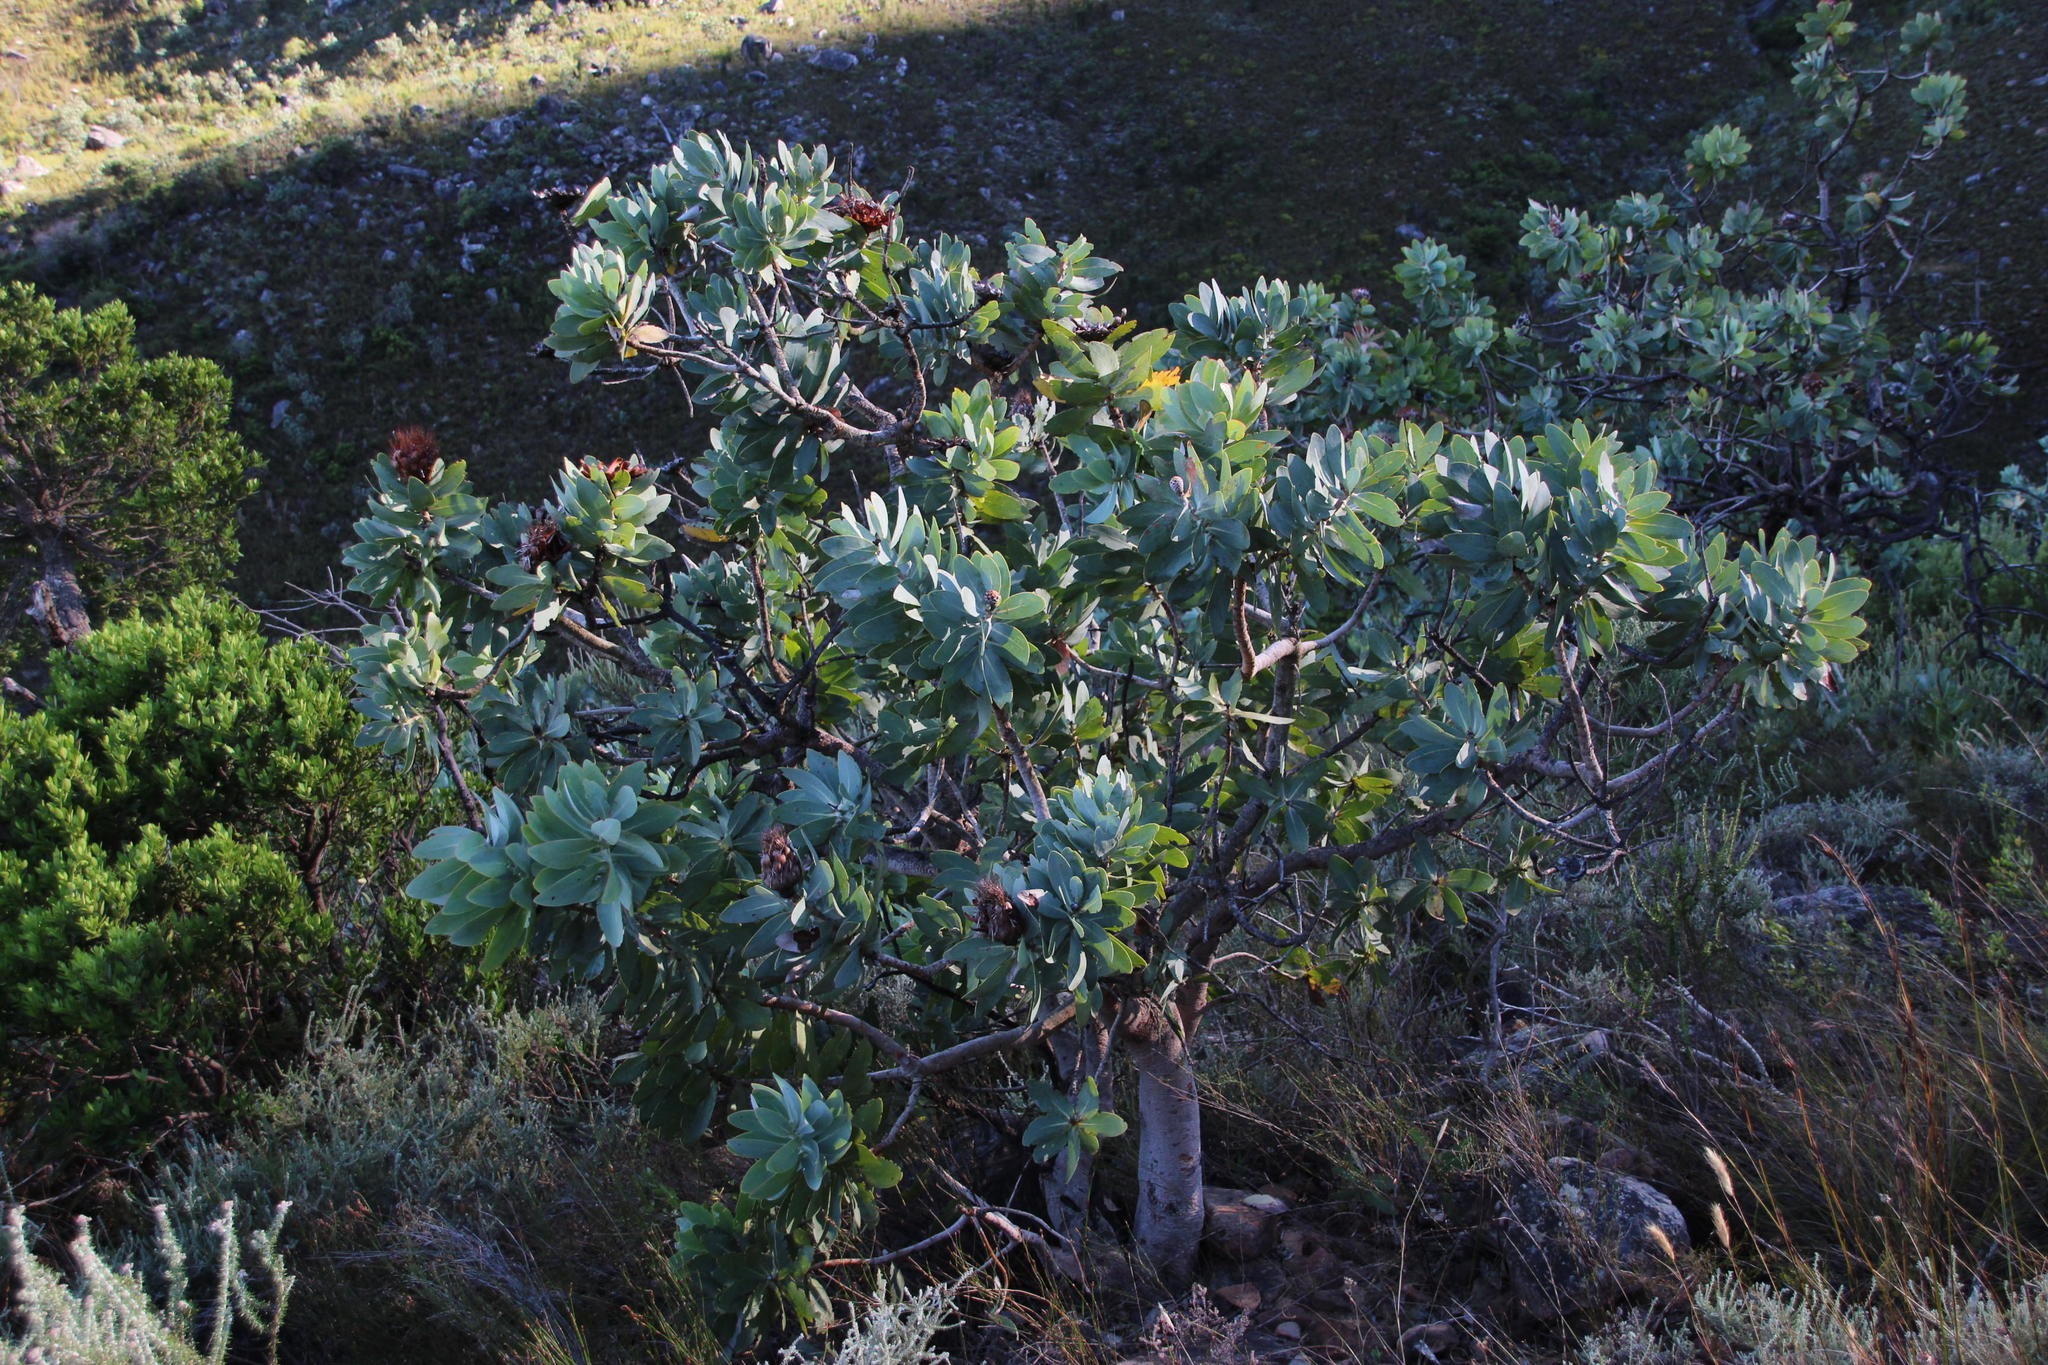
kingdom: Plantae
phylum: Tracheophyta
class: Magnoliopsida
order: Proteales
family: Proteaceae
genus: Protea
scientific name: Protea nitida
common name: Tree protea
